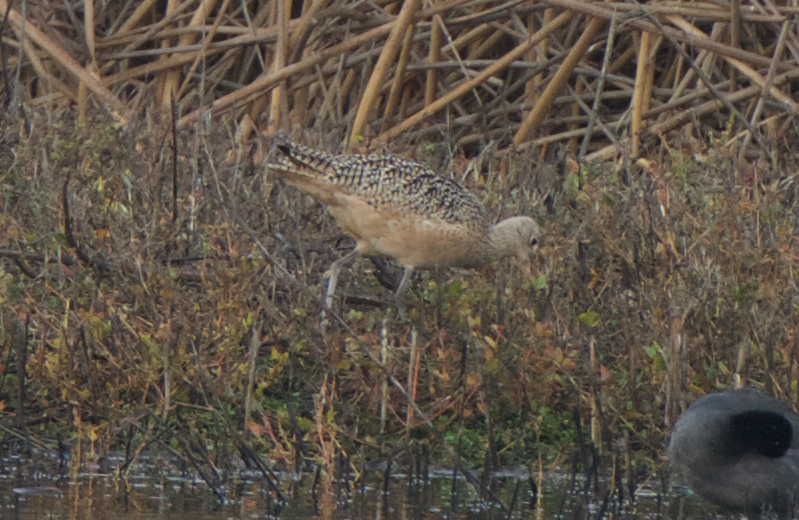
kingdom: Animalia
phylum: Chordata
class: Aves
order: Charadriiformes
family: Scolopacidae
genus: Numenius
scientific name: Numenius americanus
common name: Long-billed curlew
